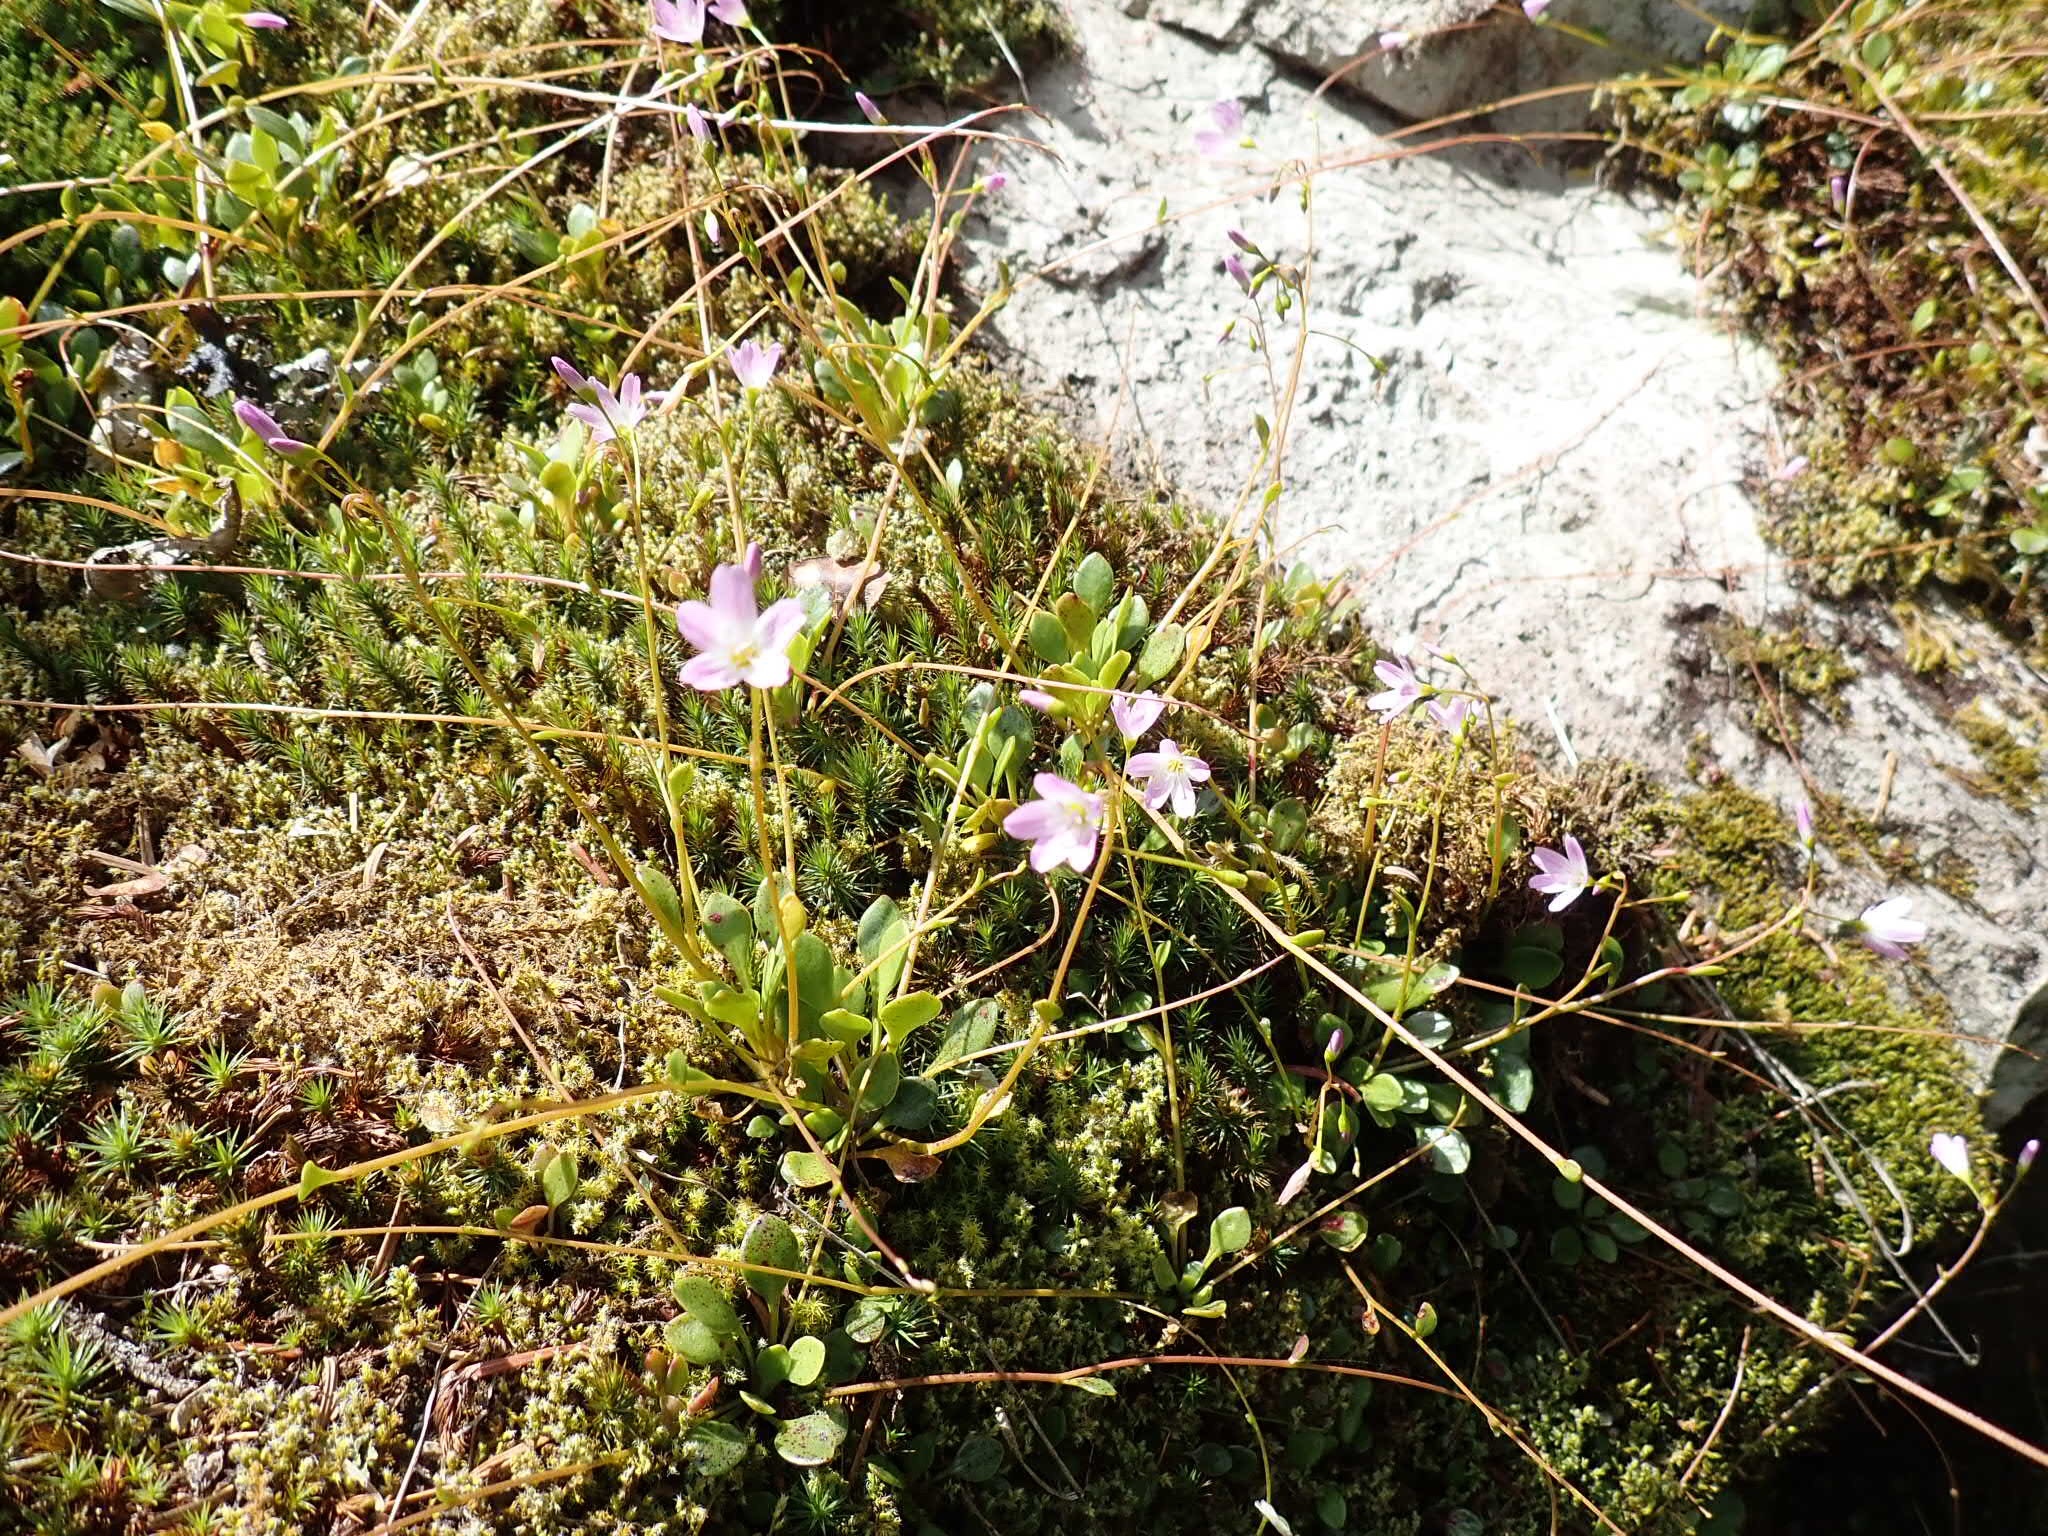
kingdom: Plantae
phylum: Tracheophyta
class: Magnoliopsida
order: Caryophyllales
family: Montiaceae
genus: Montia
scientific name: Montia parvifolia
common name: Small-leaved blinks
